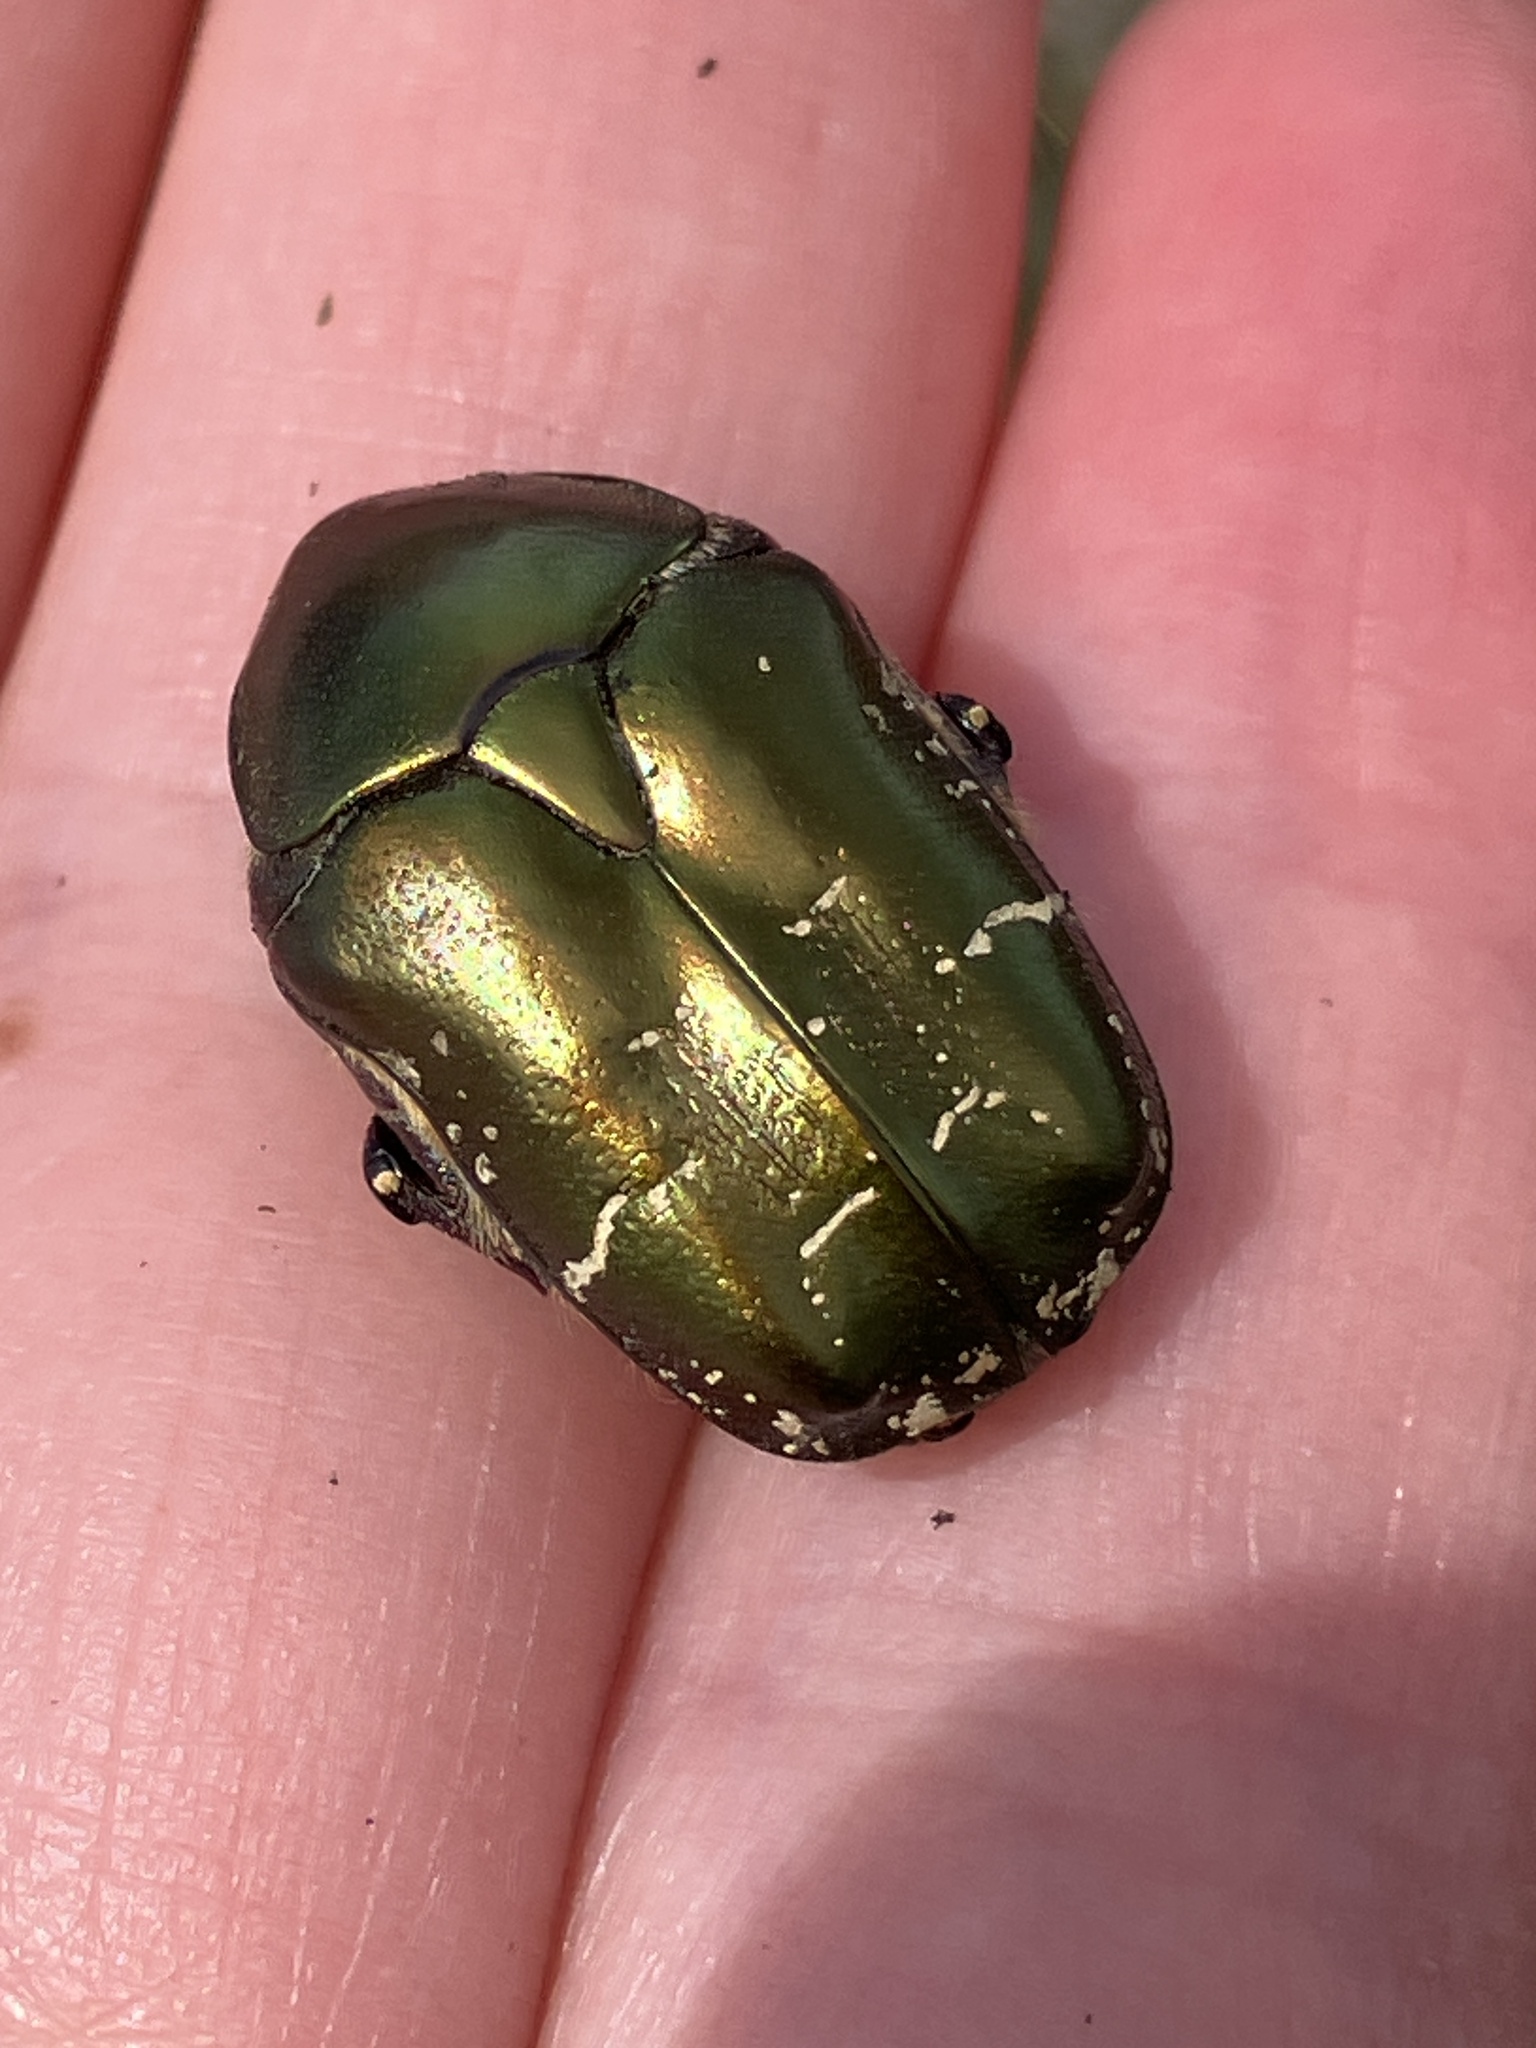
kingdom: Animalia
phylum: Arthropoda
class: Insecta
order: Coleoptera
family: Scarabaeidae
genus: Protaetia
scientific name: Protaetia cuprea
